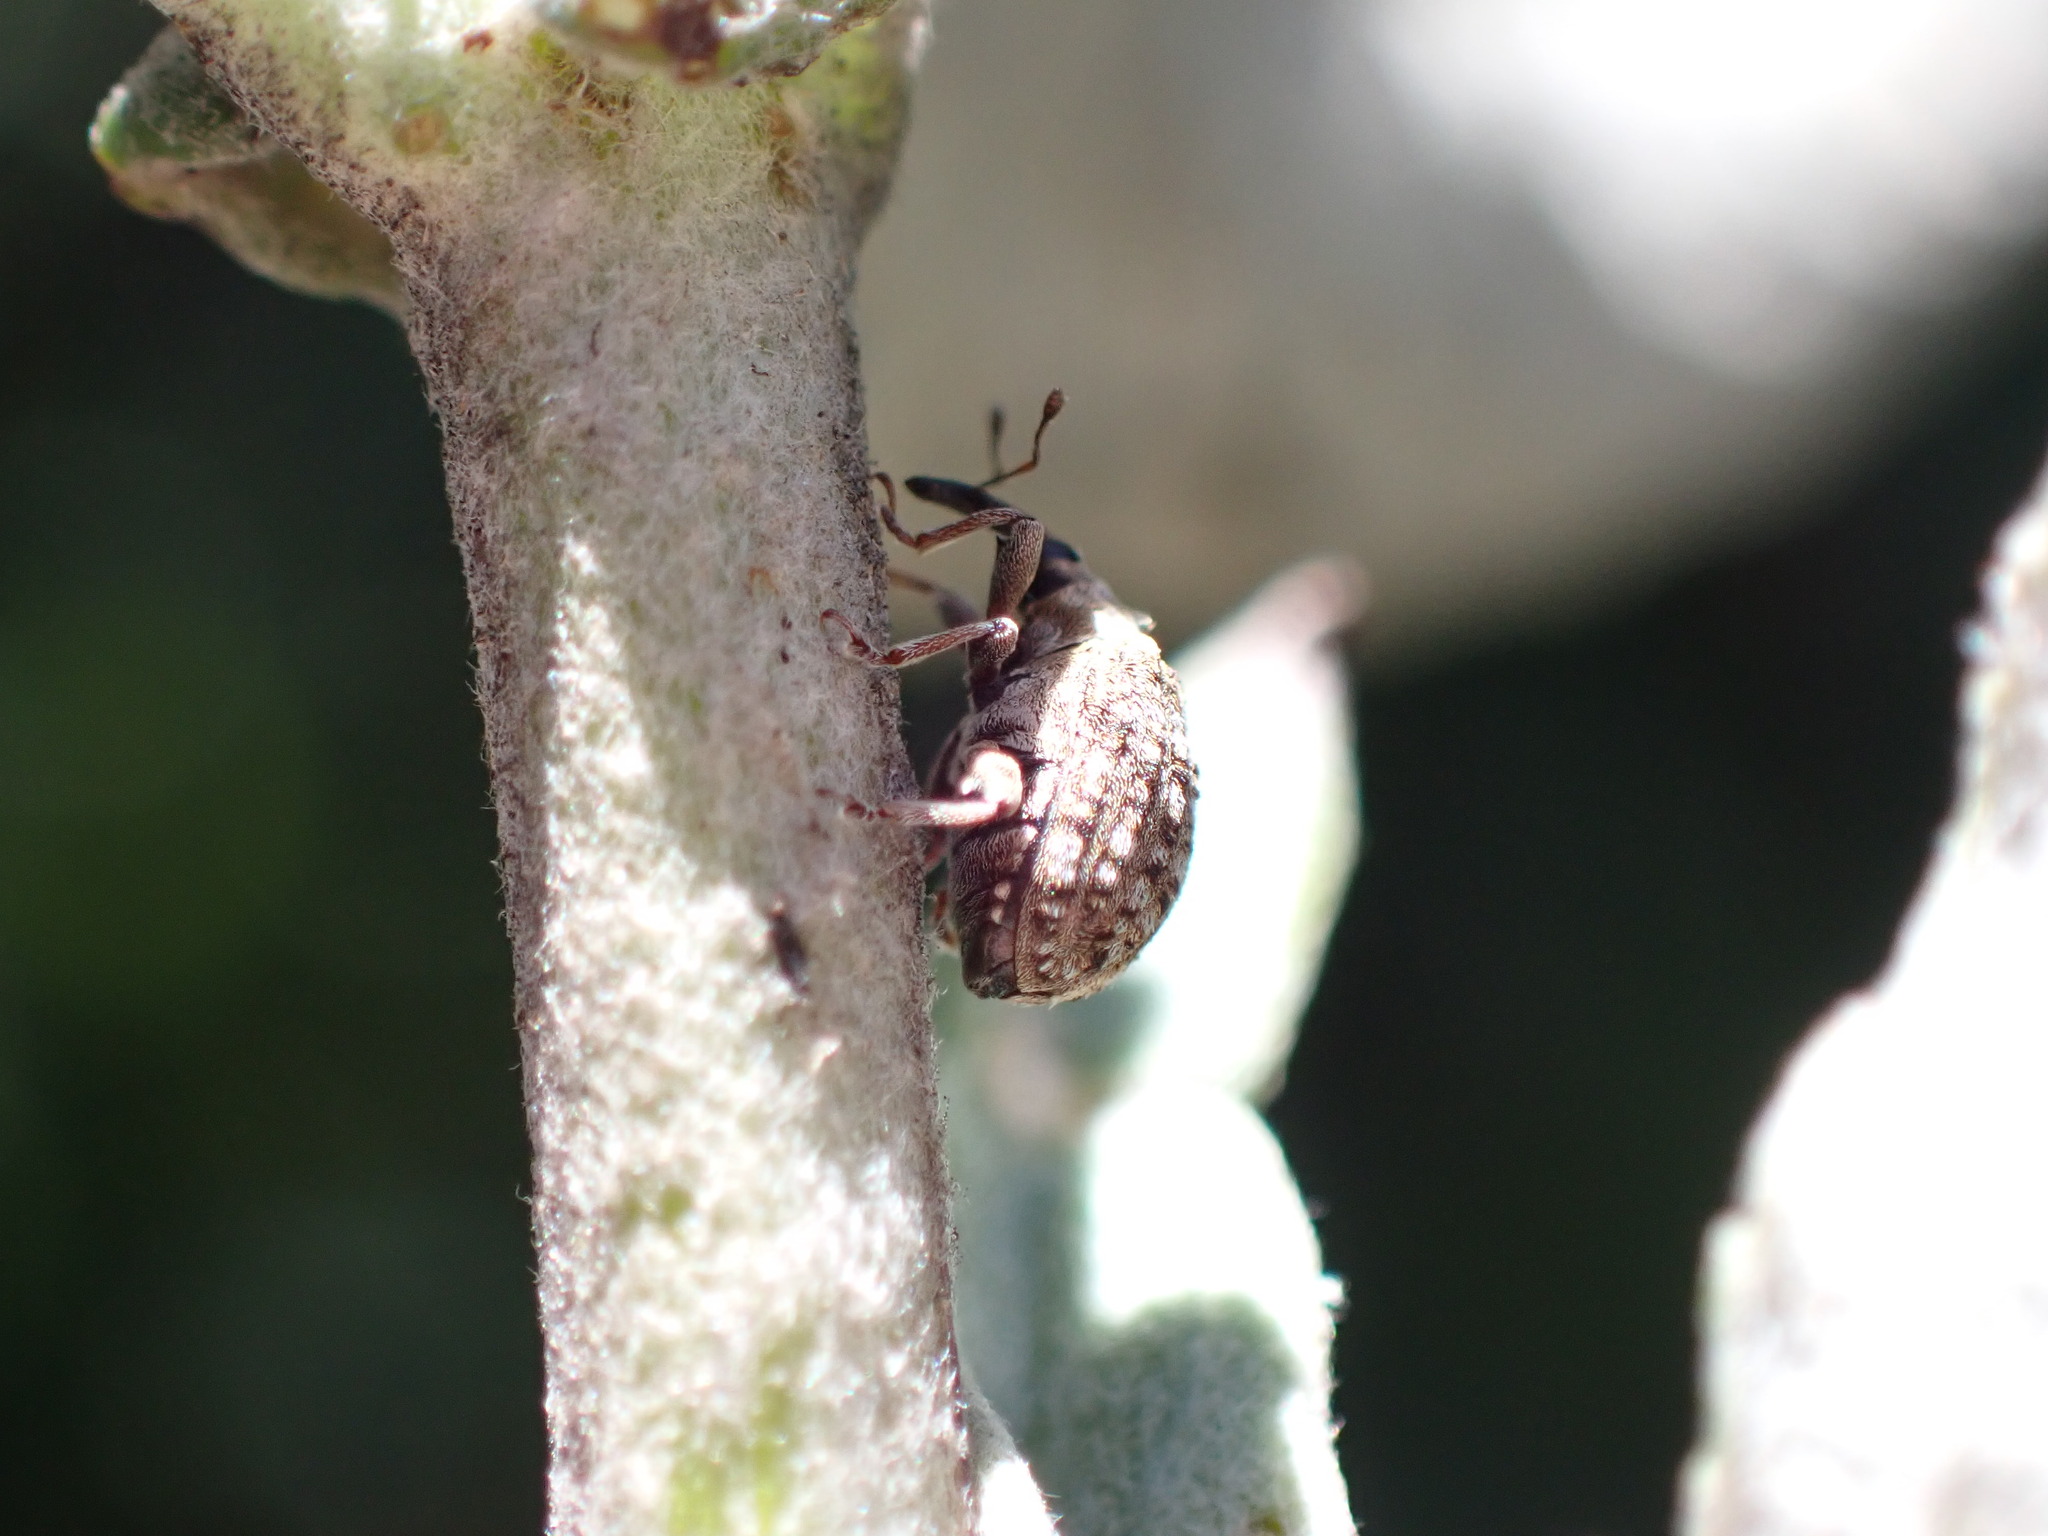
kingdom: Animalia
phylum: Arthropoda
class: Insecta
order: Coleoptera
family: Curculionidae
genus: Cleopus
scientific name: Cleopus japonicus
